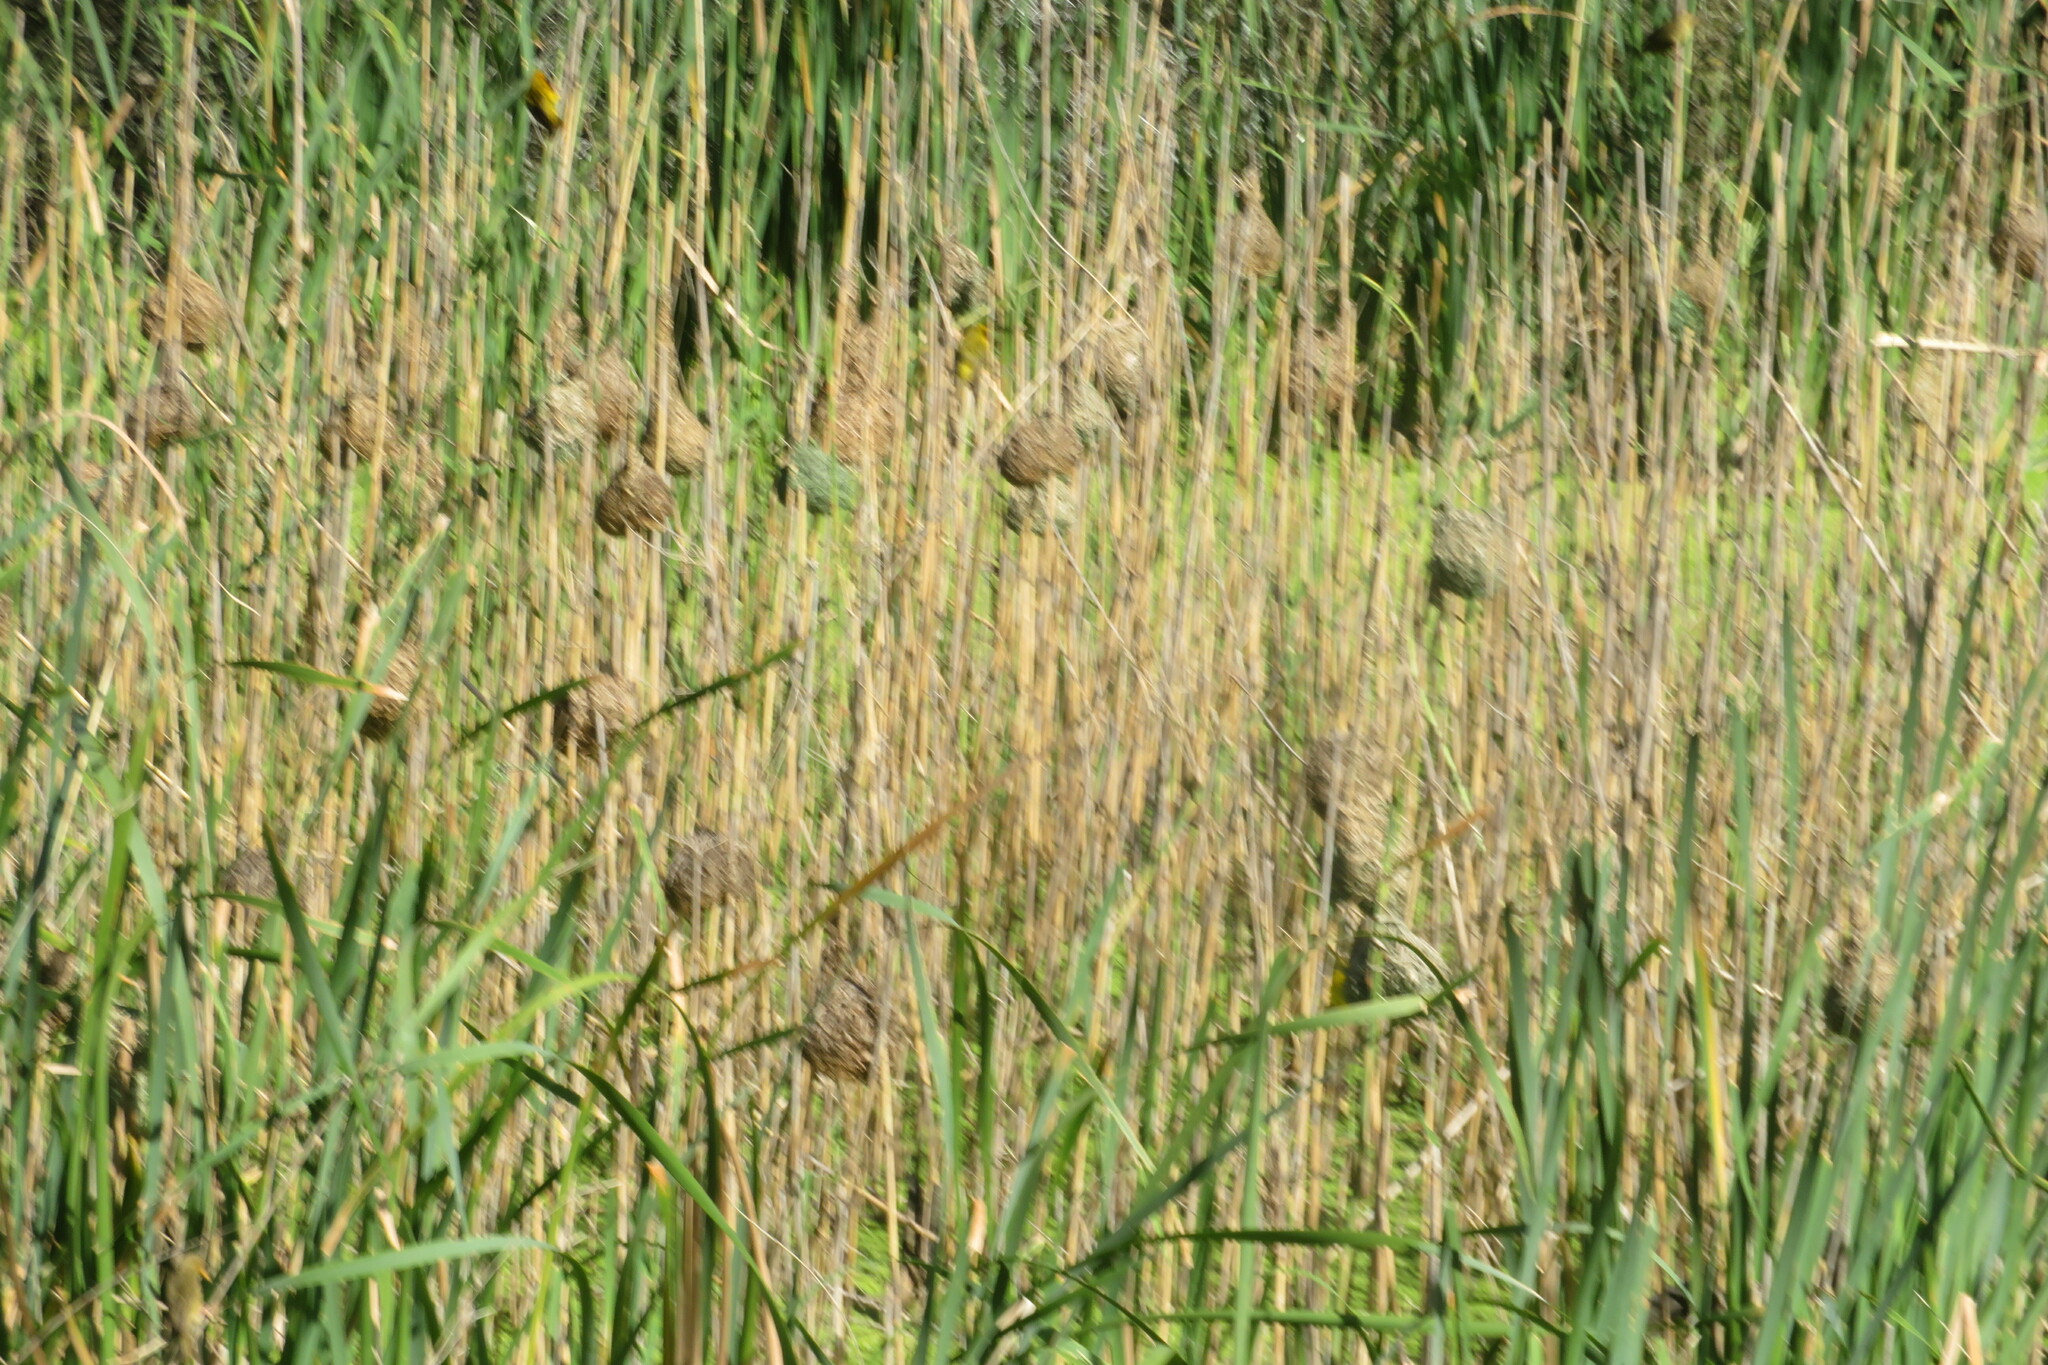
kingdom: Animalia
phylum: Chordata
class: Aves
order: Passeriformes
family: Ploceidae
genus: Ploceus
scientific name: Ploceus capensis
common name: Cape weaver
